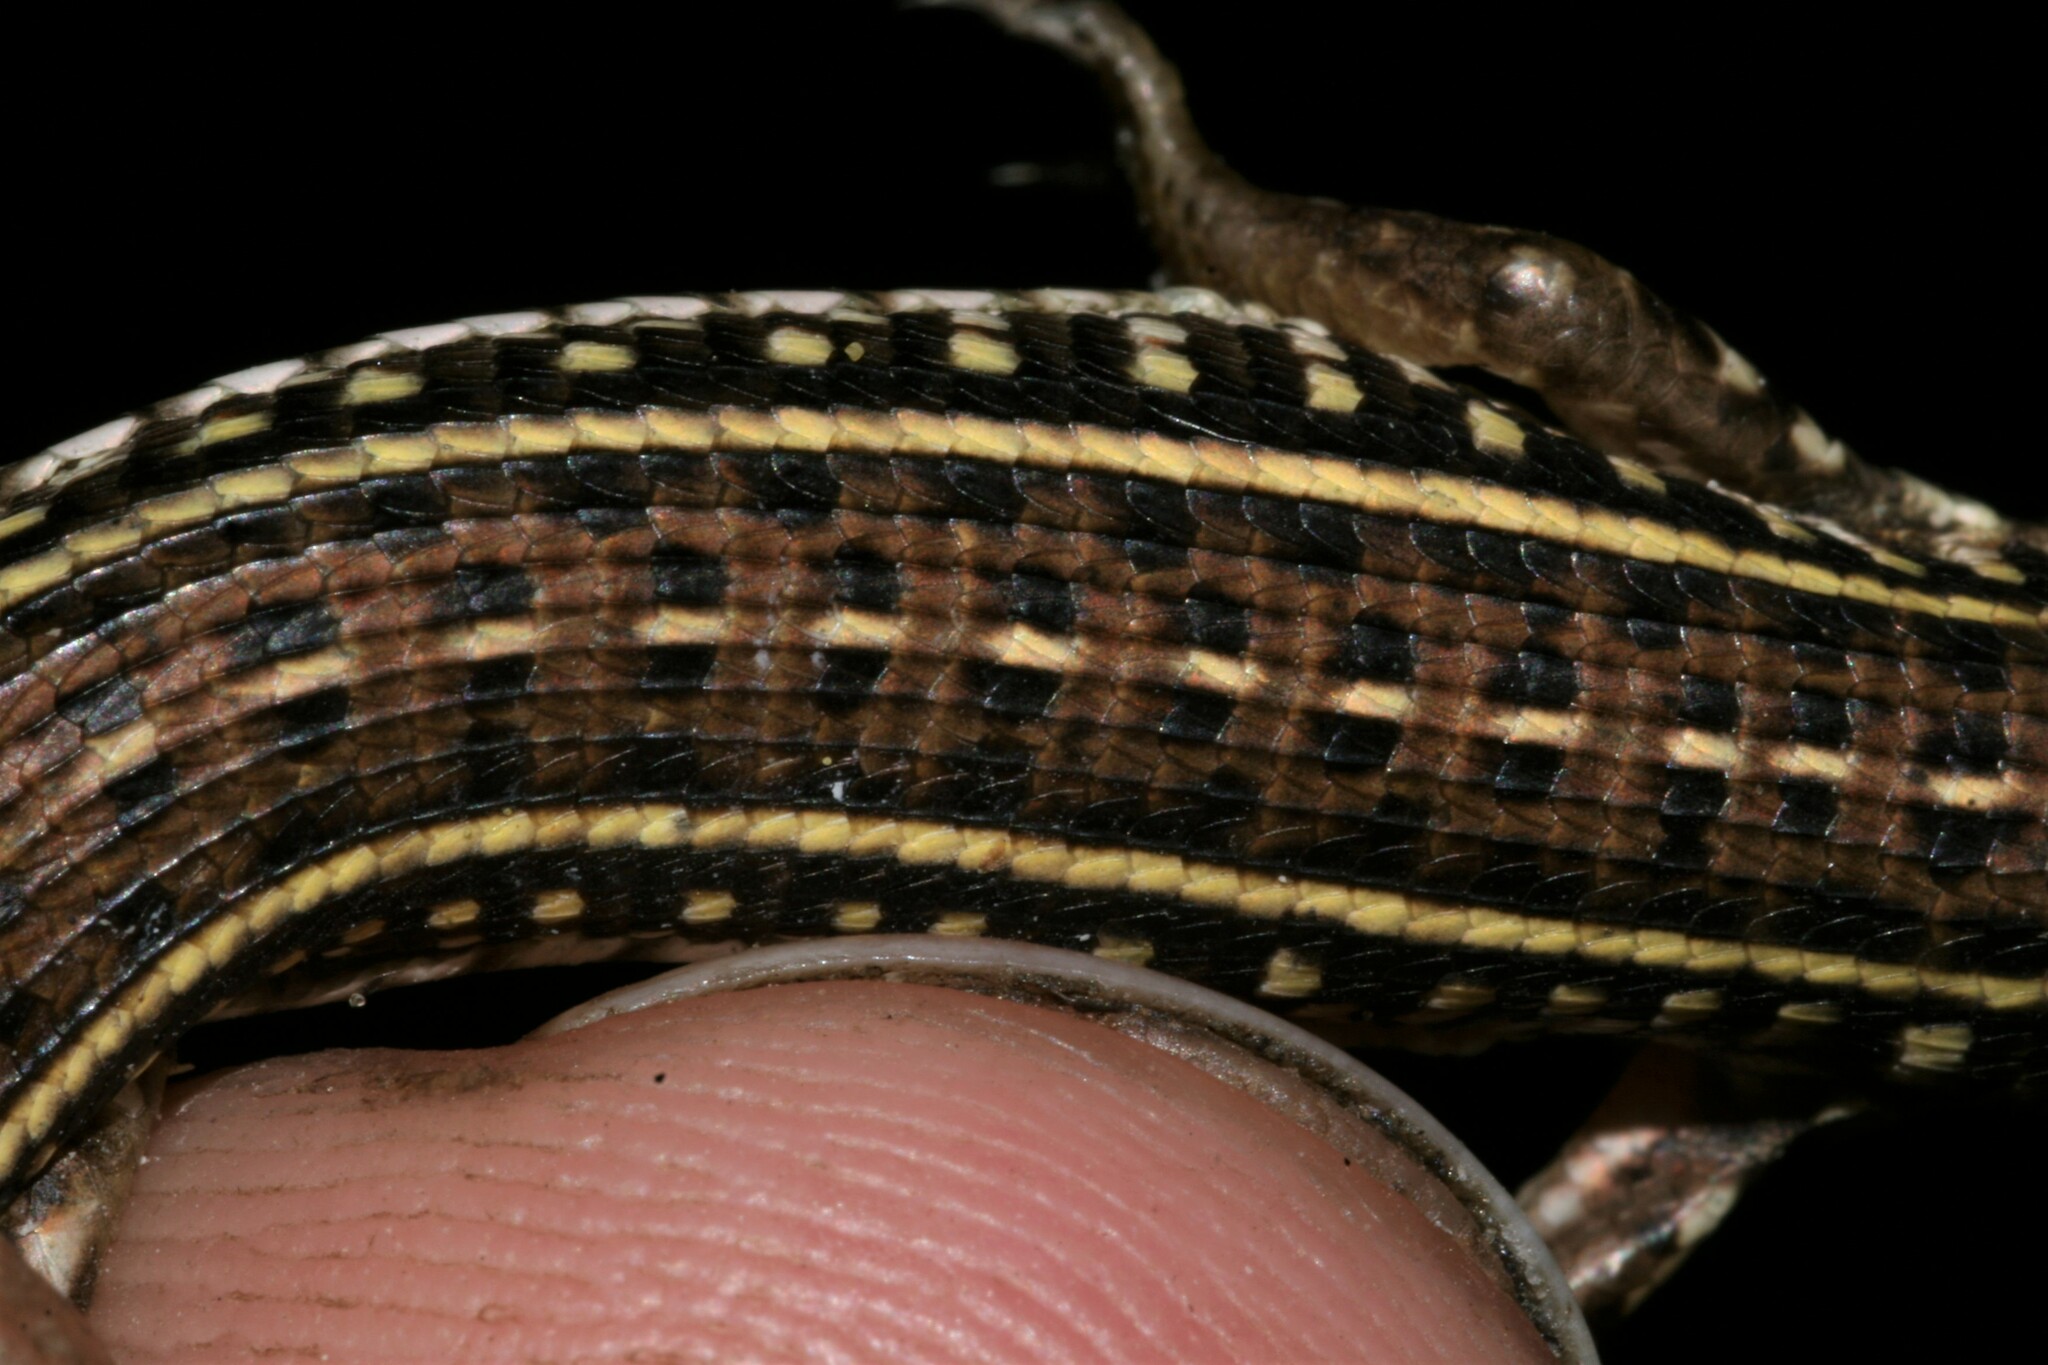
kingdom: Animalia
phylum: Chordata
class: Squamata
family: Gerrhosauridae
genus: Gerrhosaurus
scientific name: Gerrhosaurus nigrolineatus
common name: Black-lined plated lizard
